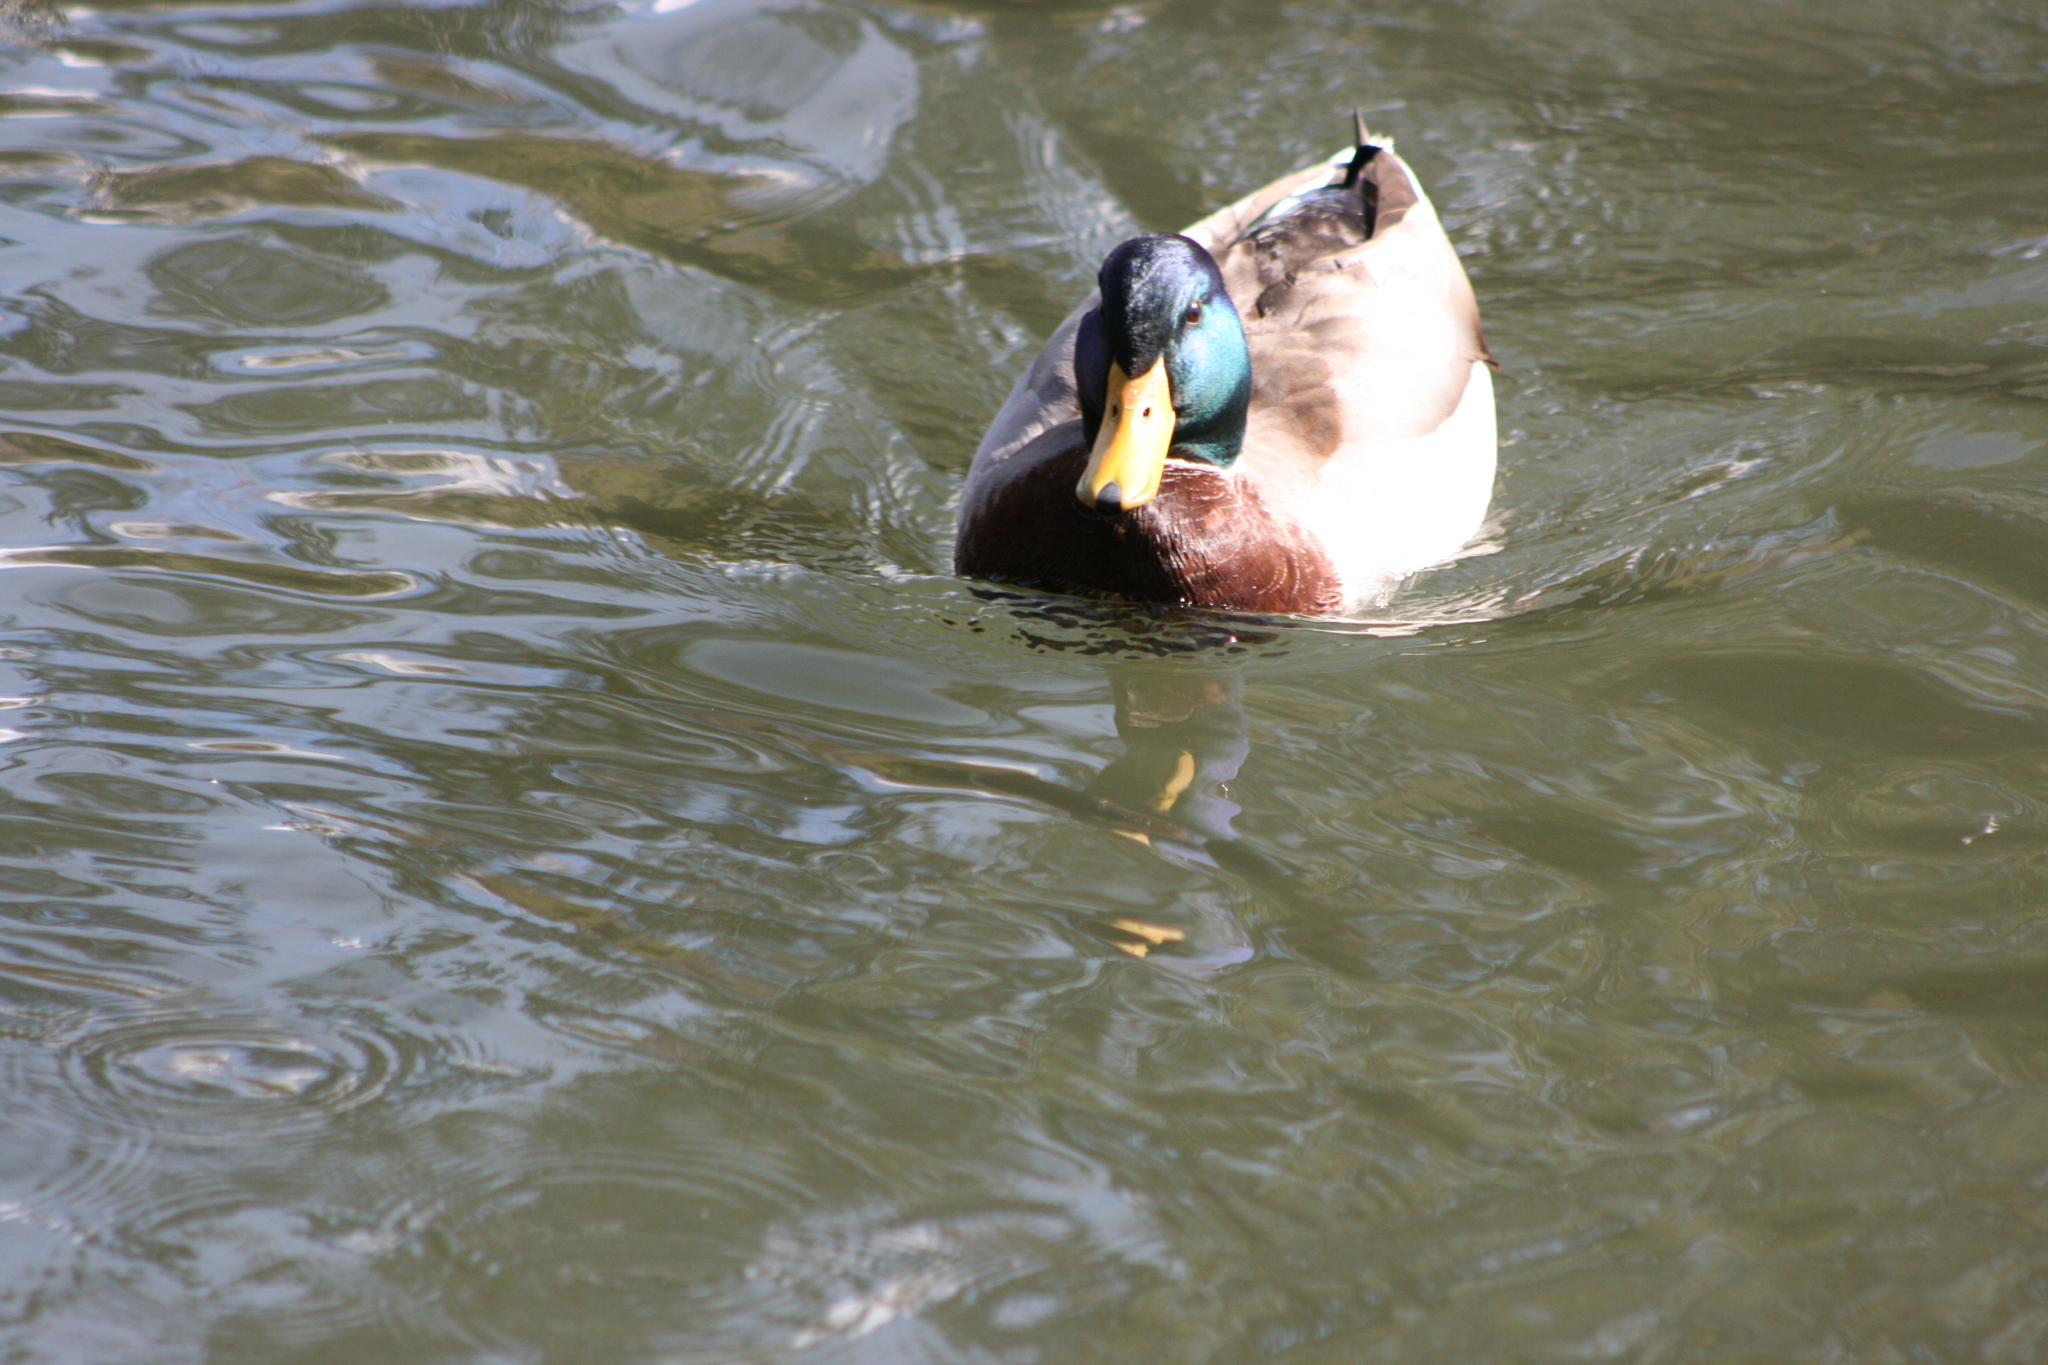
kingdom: Animalia
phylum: Chordata
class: Aves
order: Anseriformes
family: Anatidae
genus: Anas
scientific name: Anas platyrhynchos
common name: Mallard
